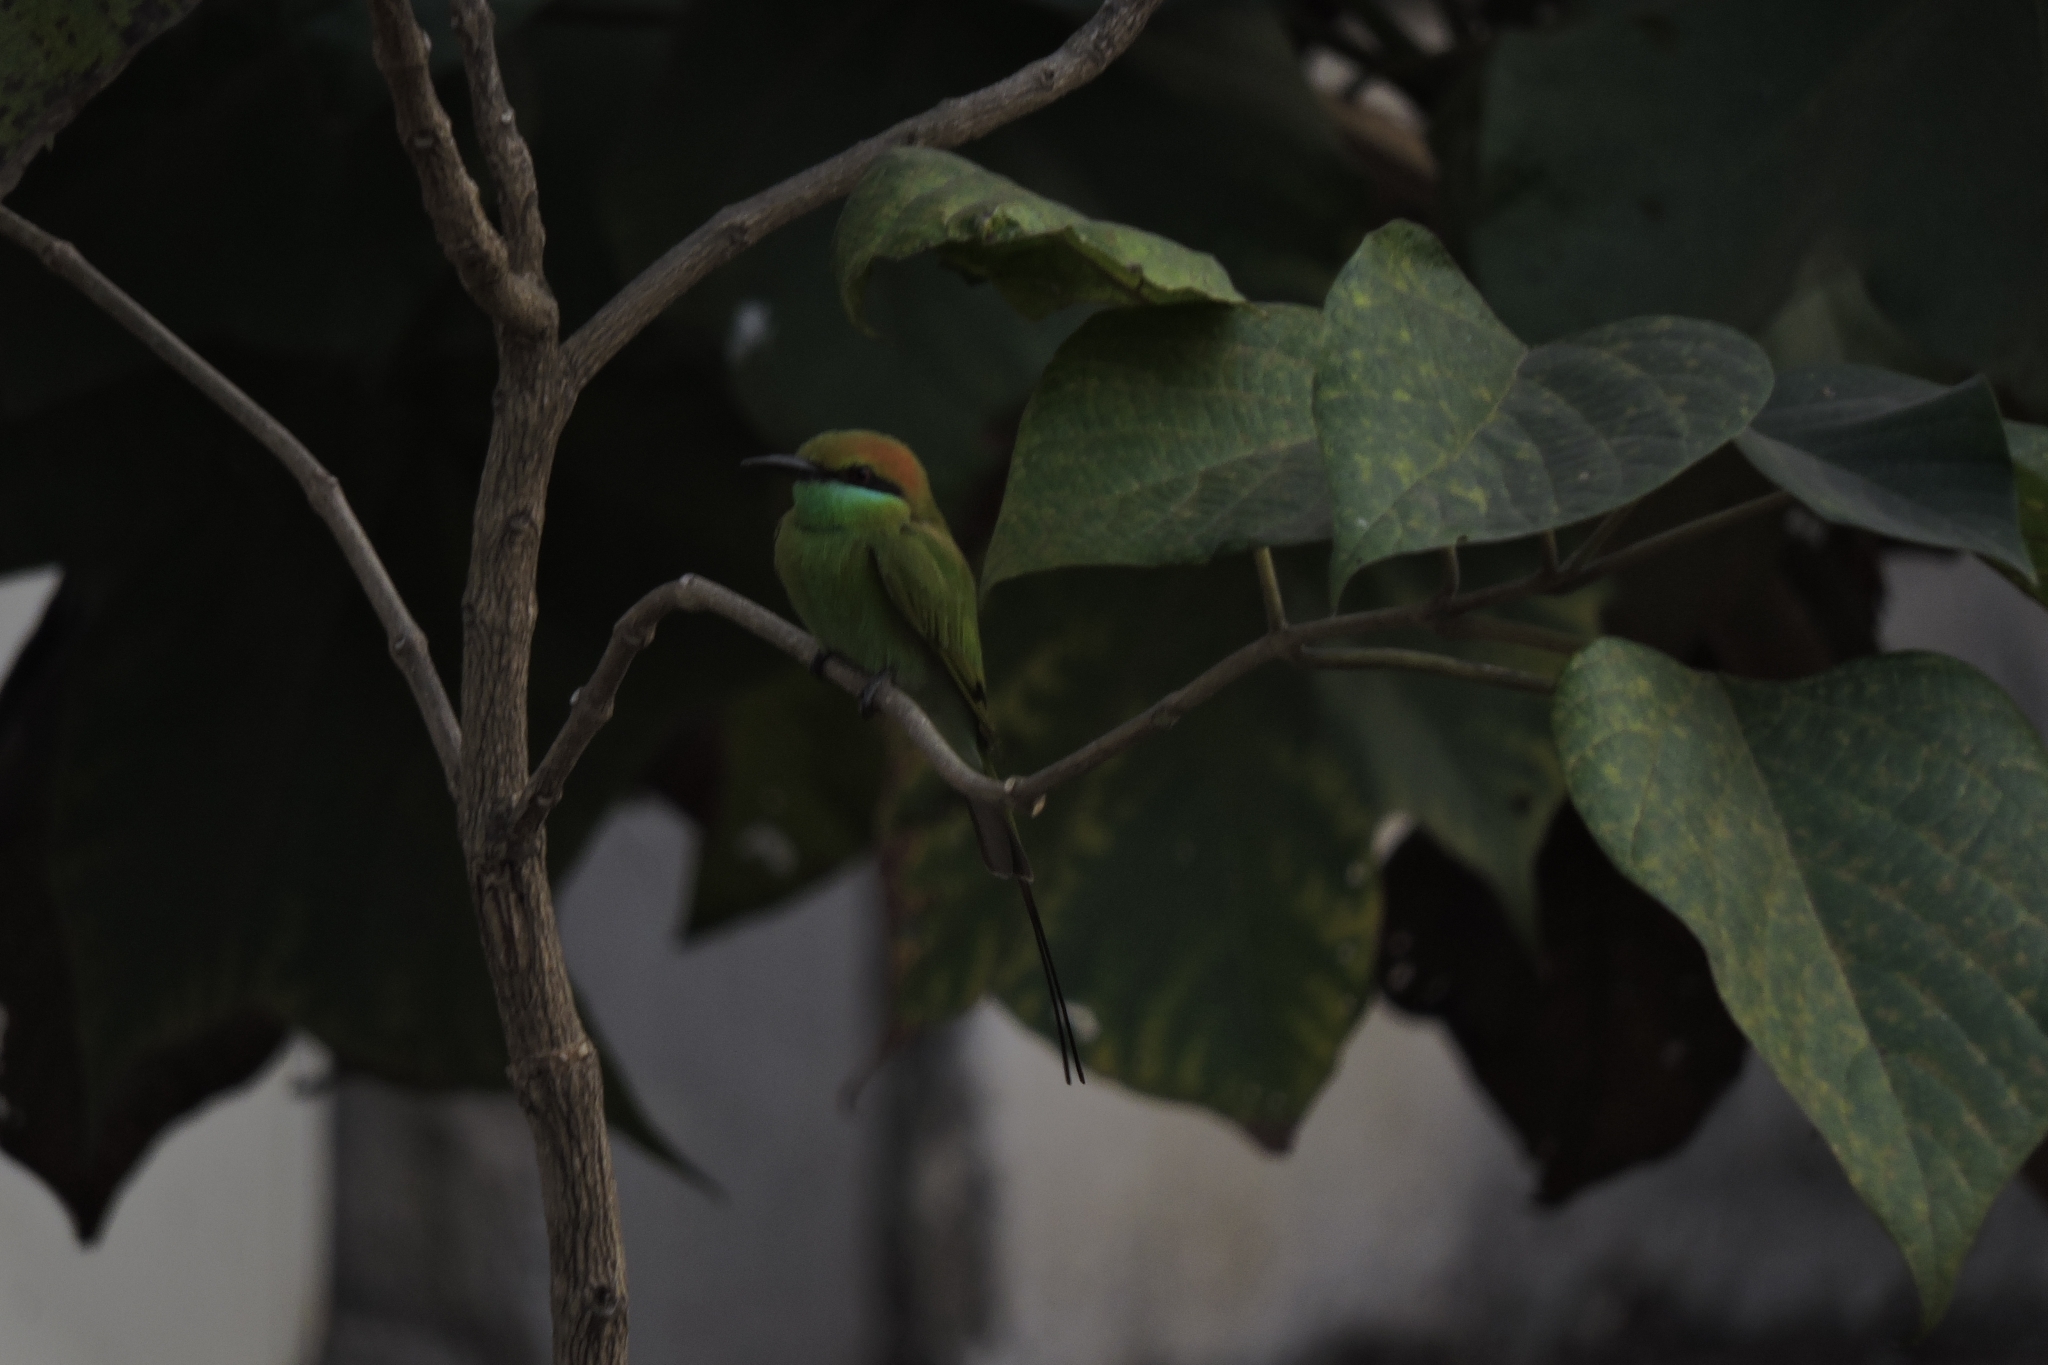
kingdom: Animalia
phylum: Chordata
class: Aves
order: Coraciiformes
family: Meropidae
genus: Merops
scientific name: Merops orientalis
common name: Green bee-eater
